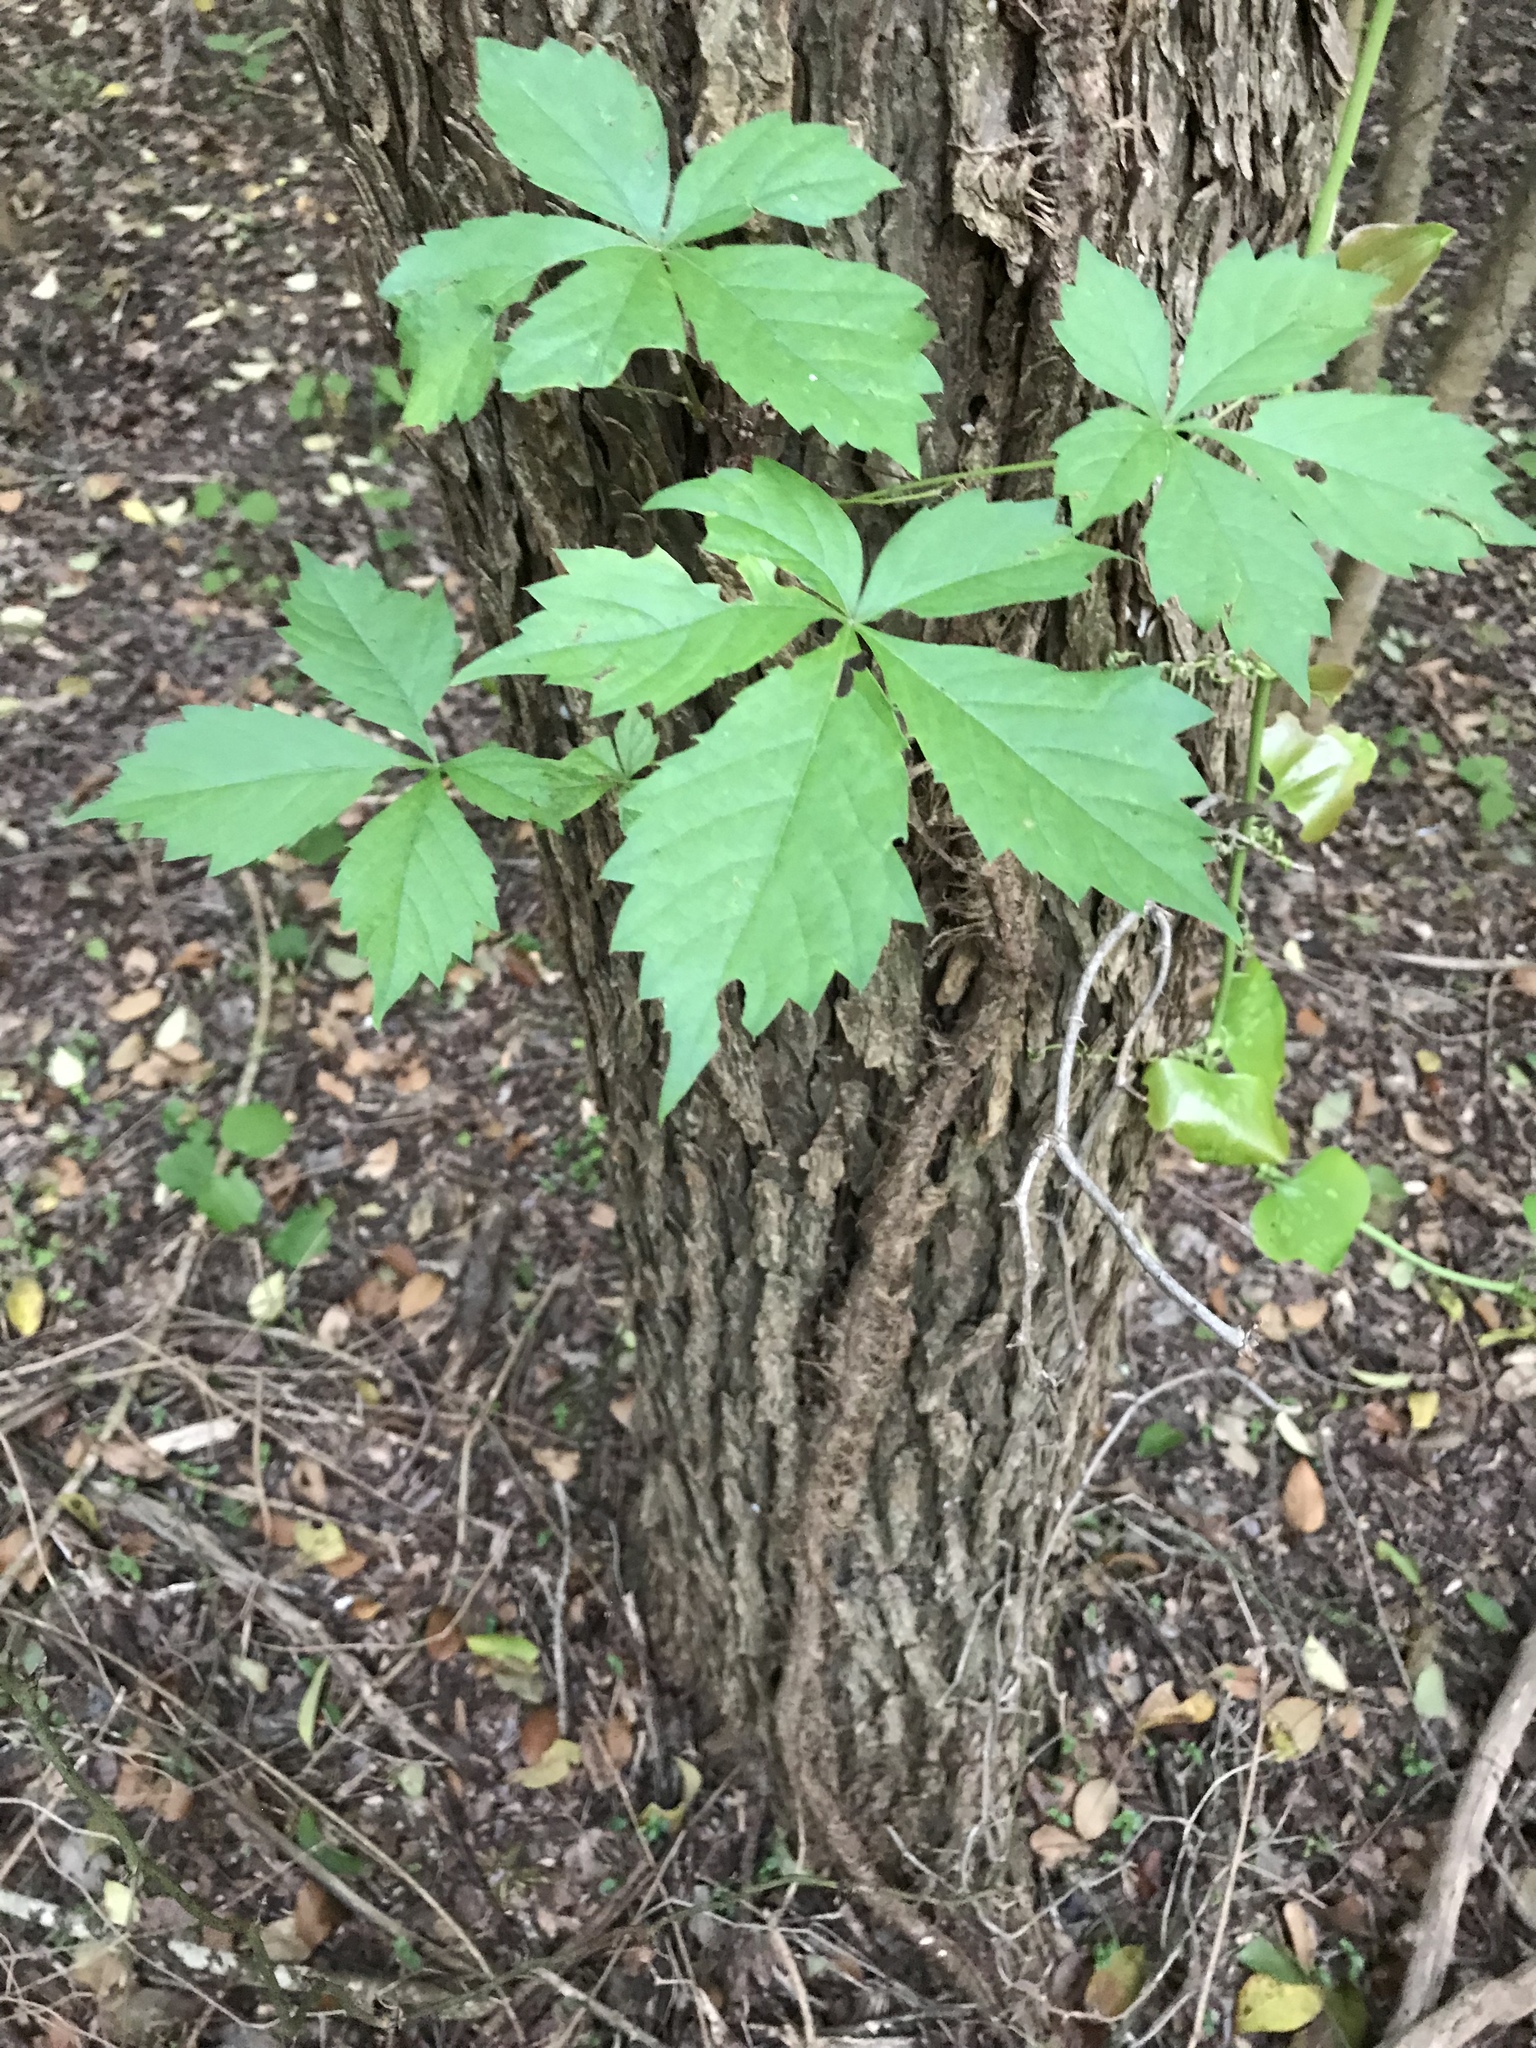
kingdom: Plantae
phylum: Tracheophyta
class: Magnoliopsida
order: Vitales
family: Vitaceae
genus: Parthenocissus
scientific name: Parthenocissus quinquefolia
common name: Virginia-creeper
